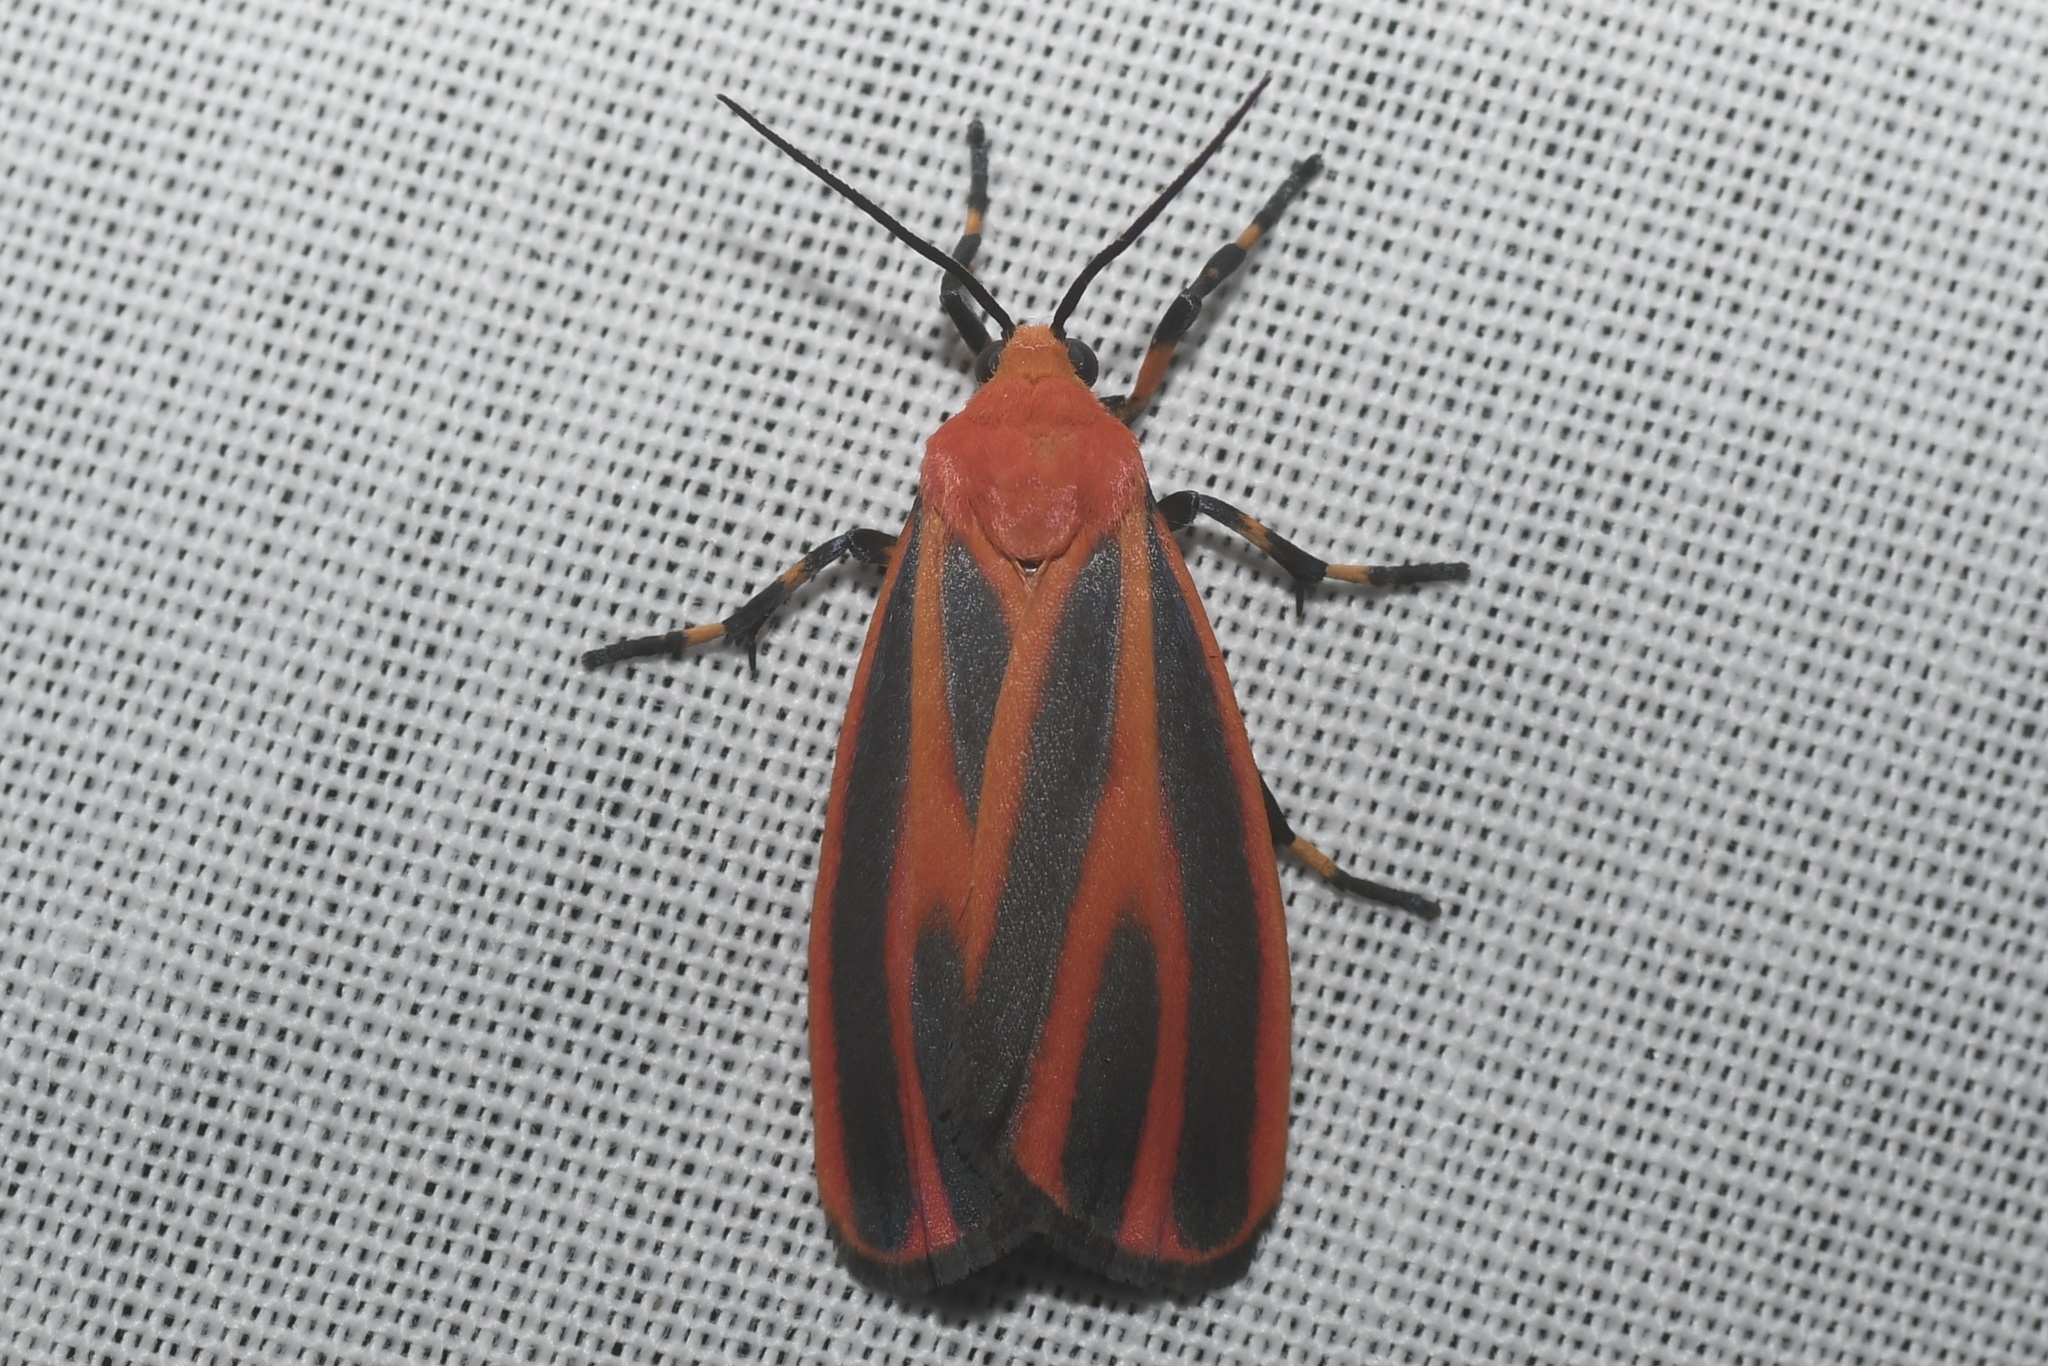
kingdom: Animalia
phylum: Arthropoda
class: Insecta
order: Lepidoptera
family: Erebidae
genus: Hypoprepia
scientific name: Hypoprepia miniata
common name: Scarlet-winged lichen moth
